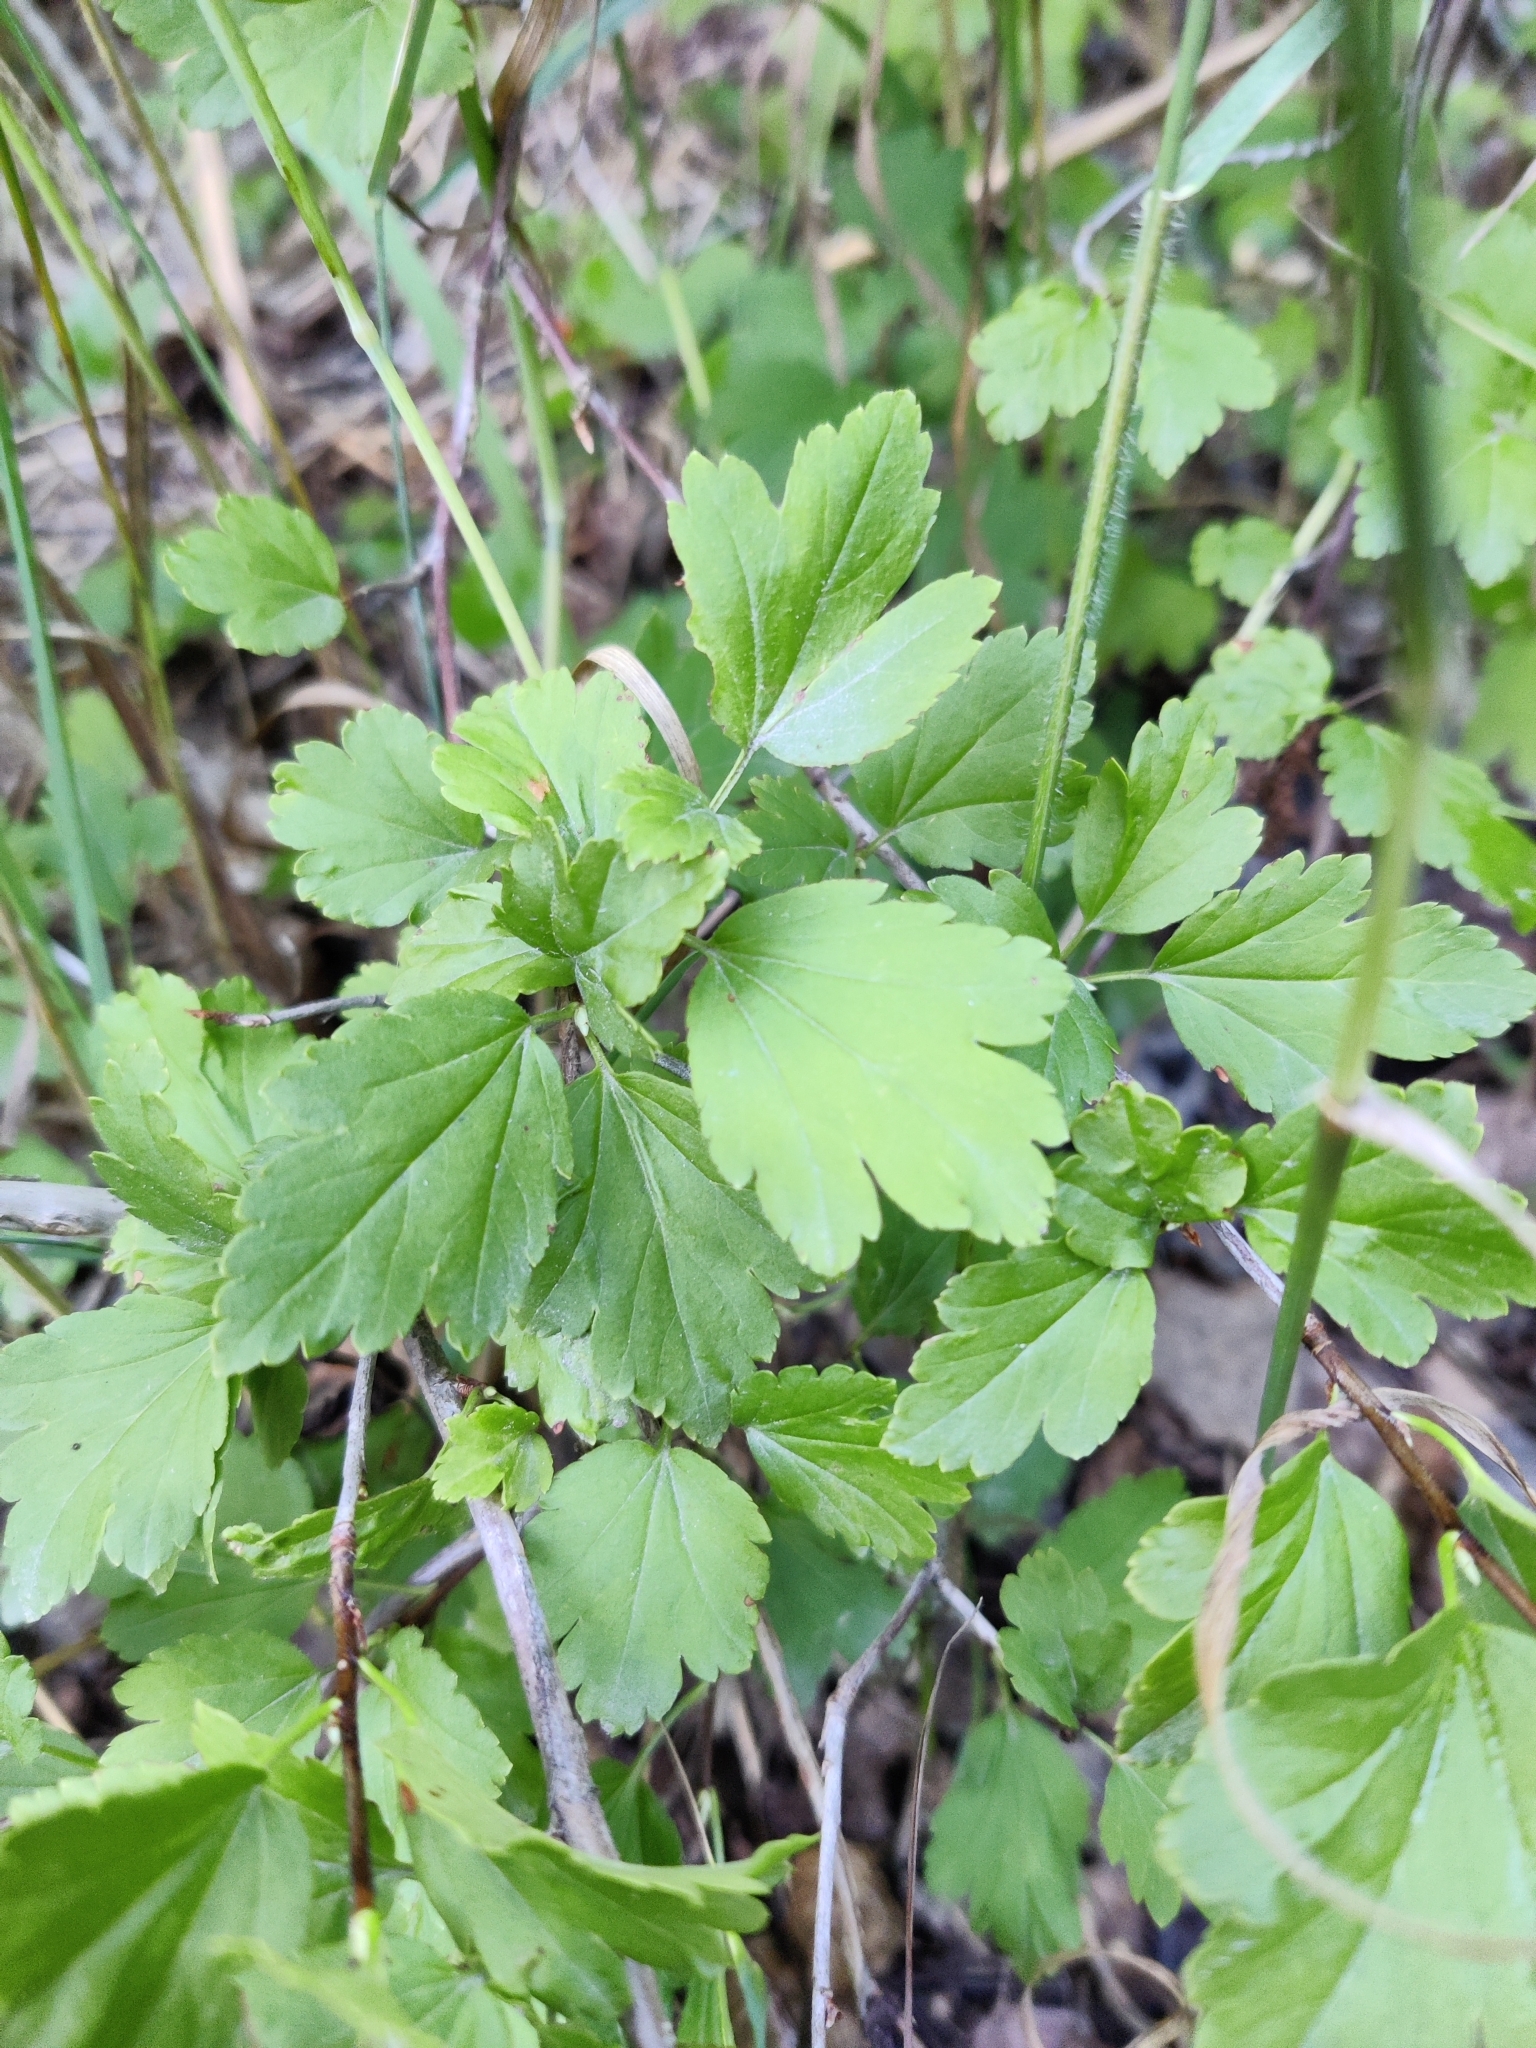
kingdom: Plantae
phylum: Tracheophyta
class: Magnoliopsida
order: Saxifragales
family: Grossulariaceae
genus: Ribes
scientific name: Ribes alpinum
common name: Alpine currant
